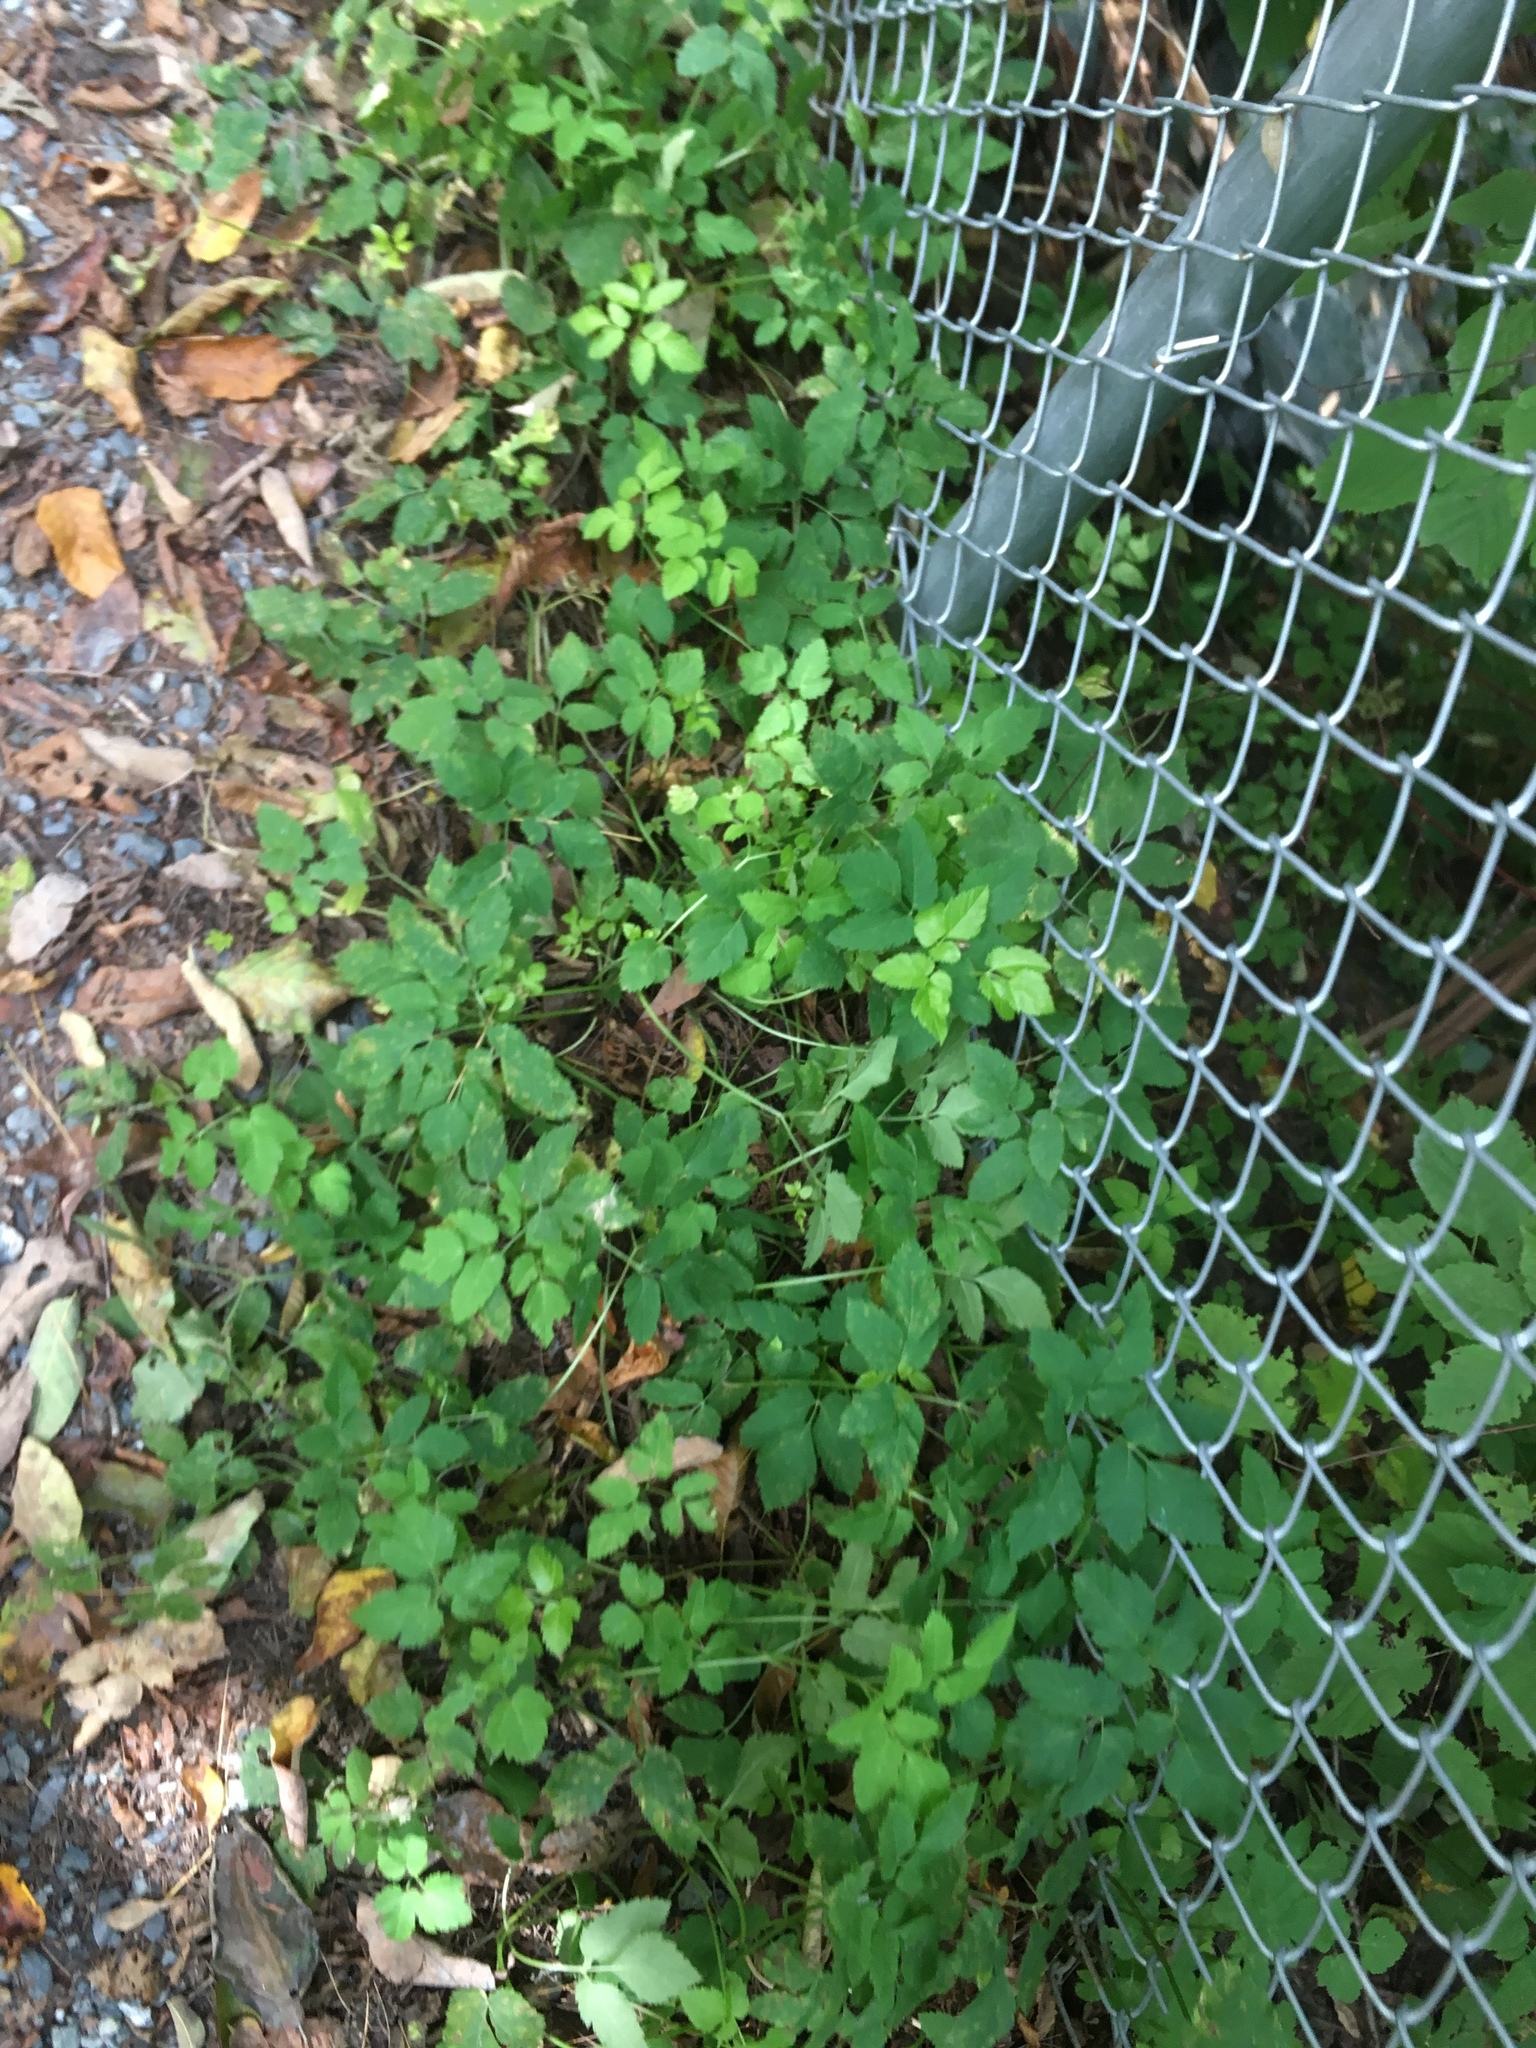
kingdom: Plantae
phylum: Tracheophyta
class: Magnoliopsida
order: Apiales
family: Apiaceae
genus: Aegopodium
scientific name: Aegopodium podagraria
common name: Ground-elder
